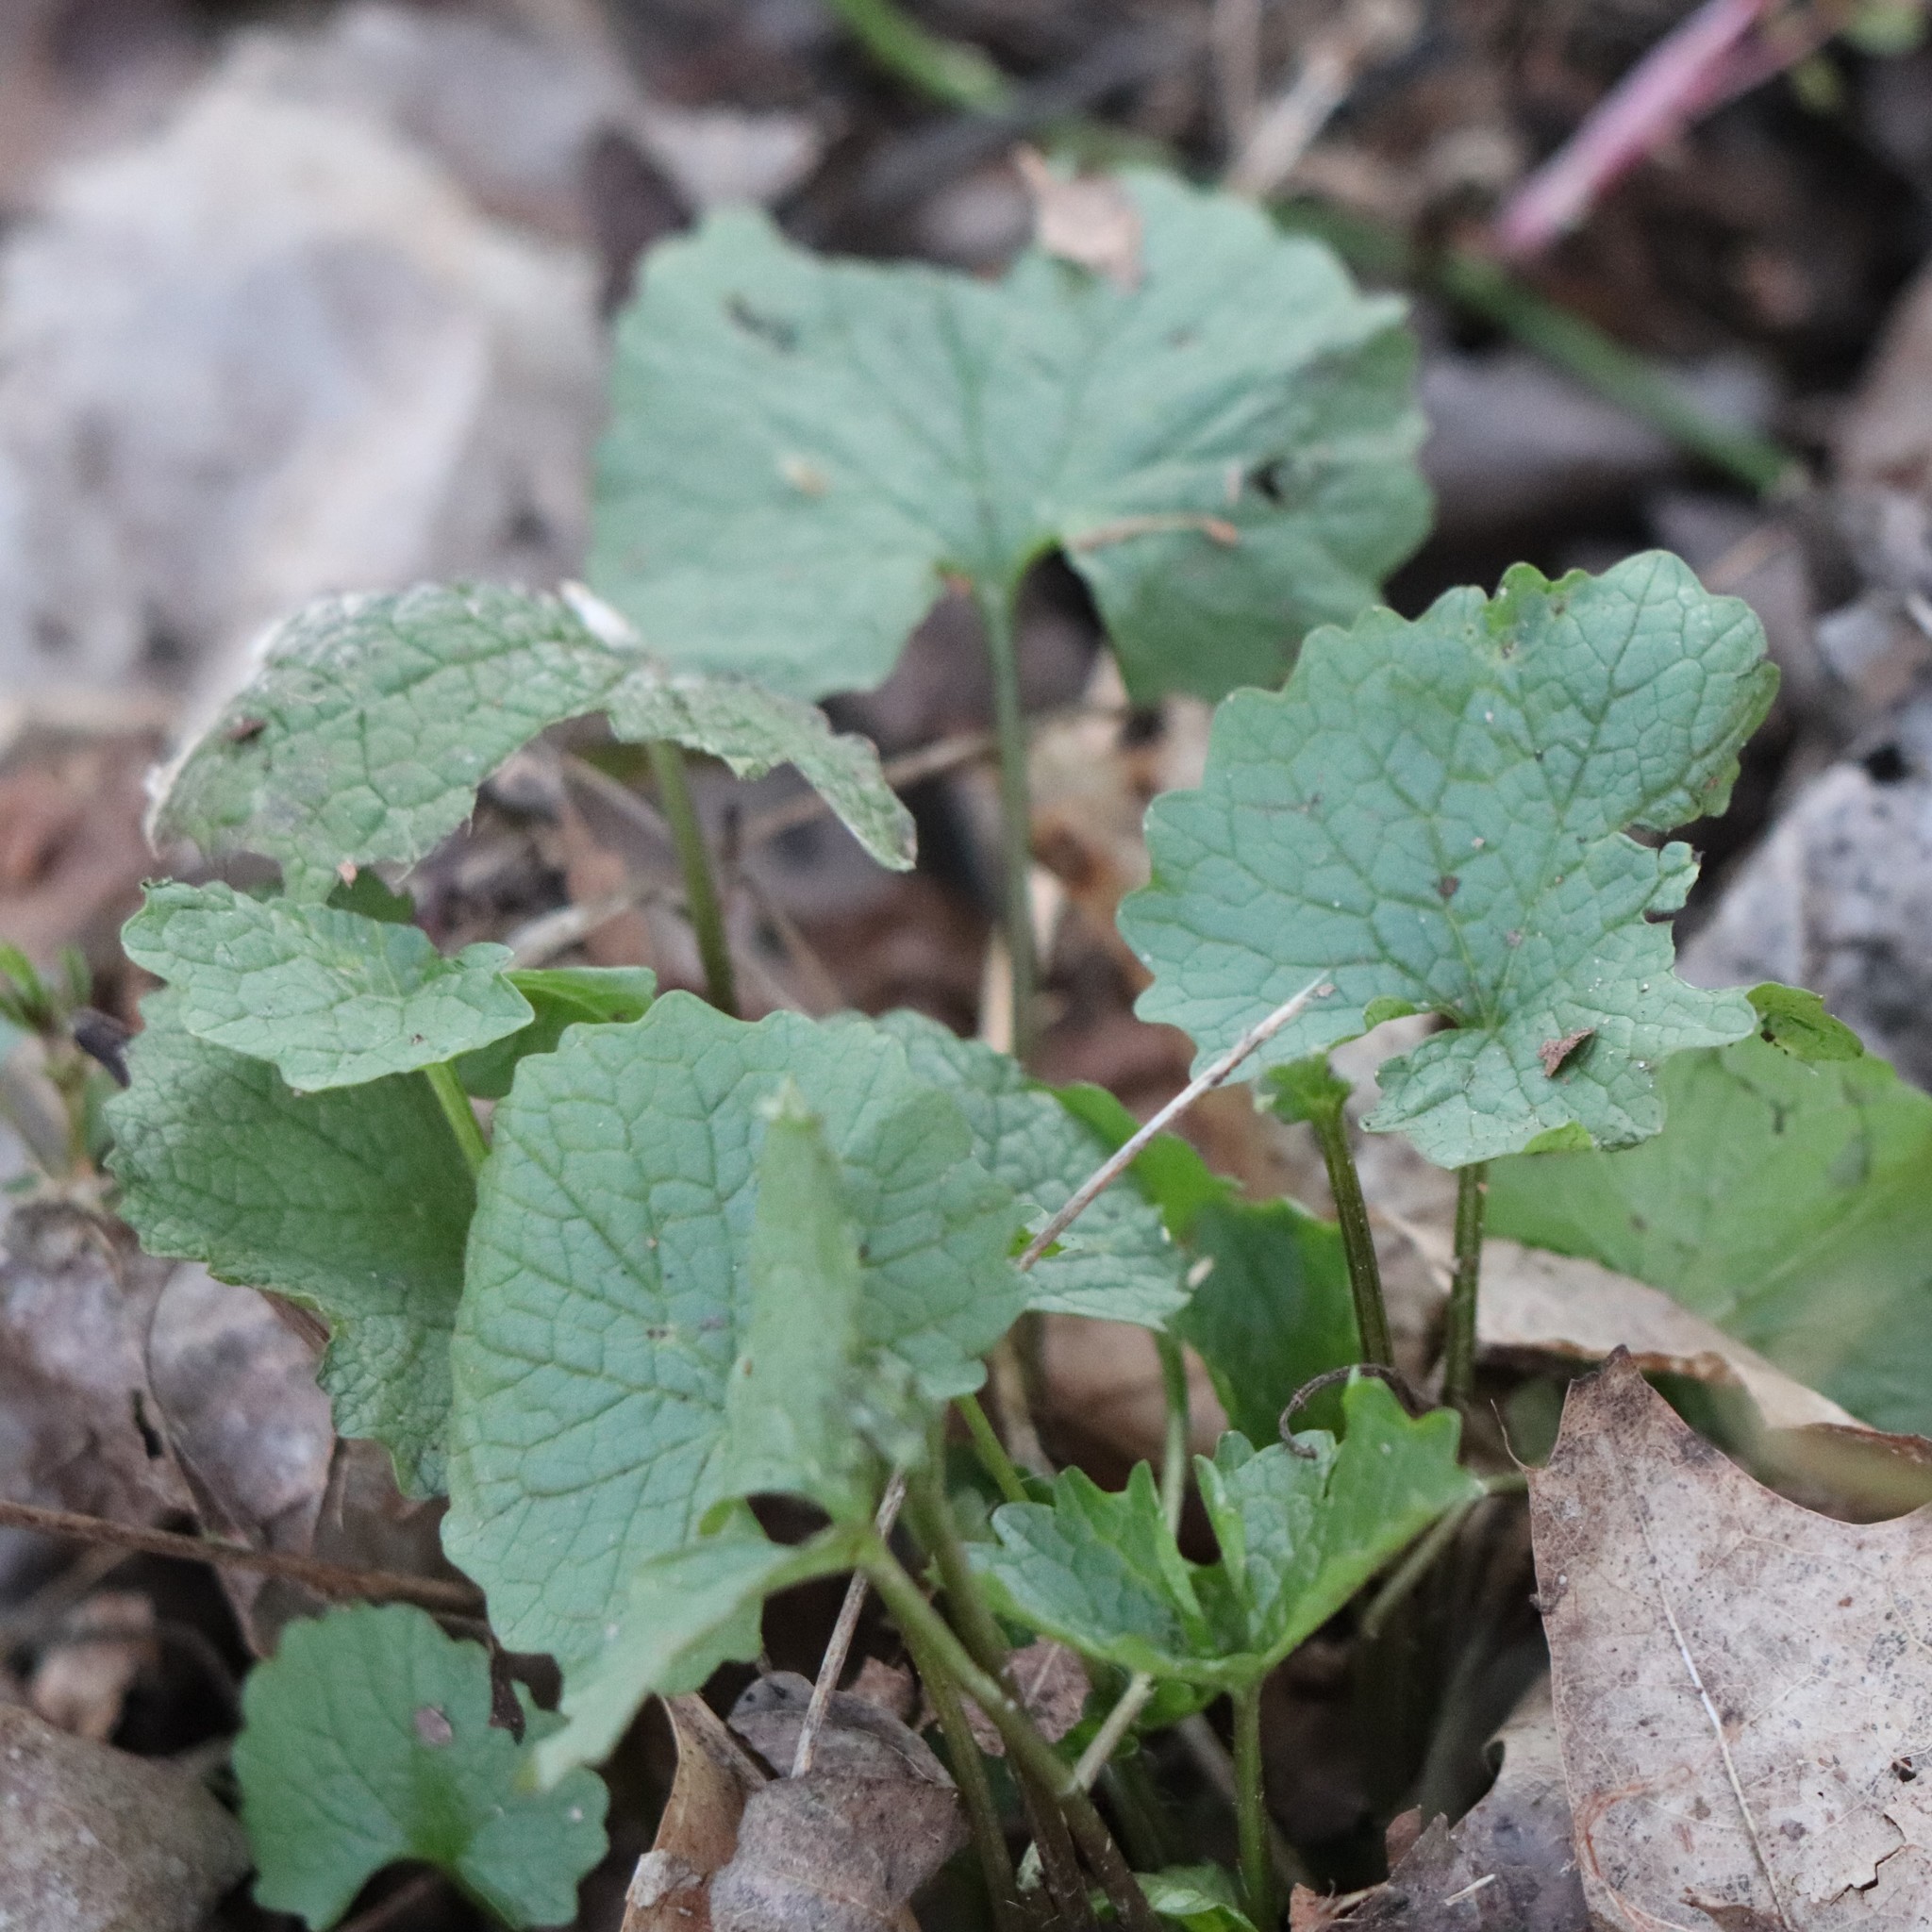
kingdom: Plantae
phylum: Tracheophyta
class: Magnoliopsida
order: Brassicales
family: Brassicaceae
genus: Alliaria
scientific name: Alliaria petiolata
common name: Garlic mustard
